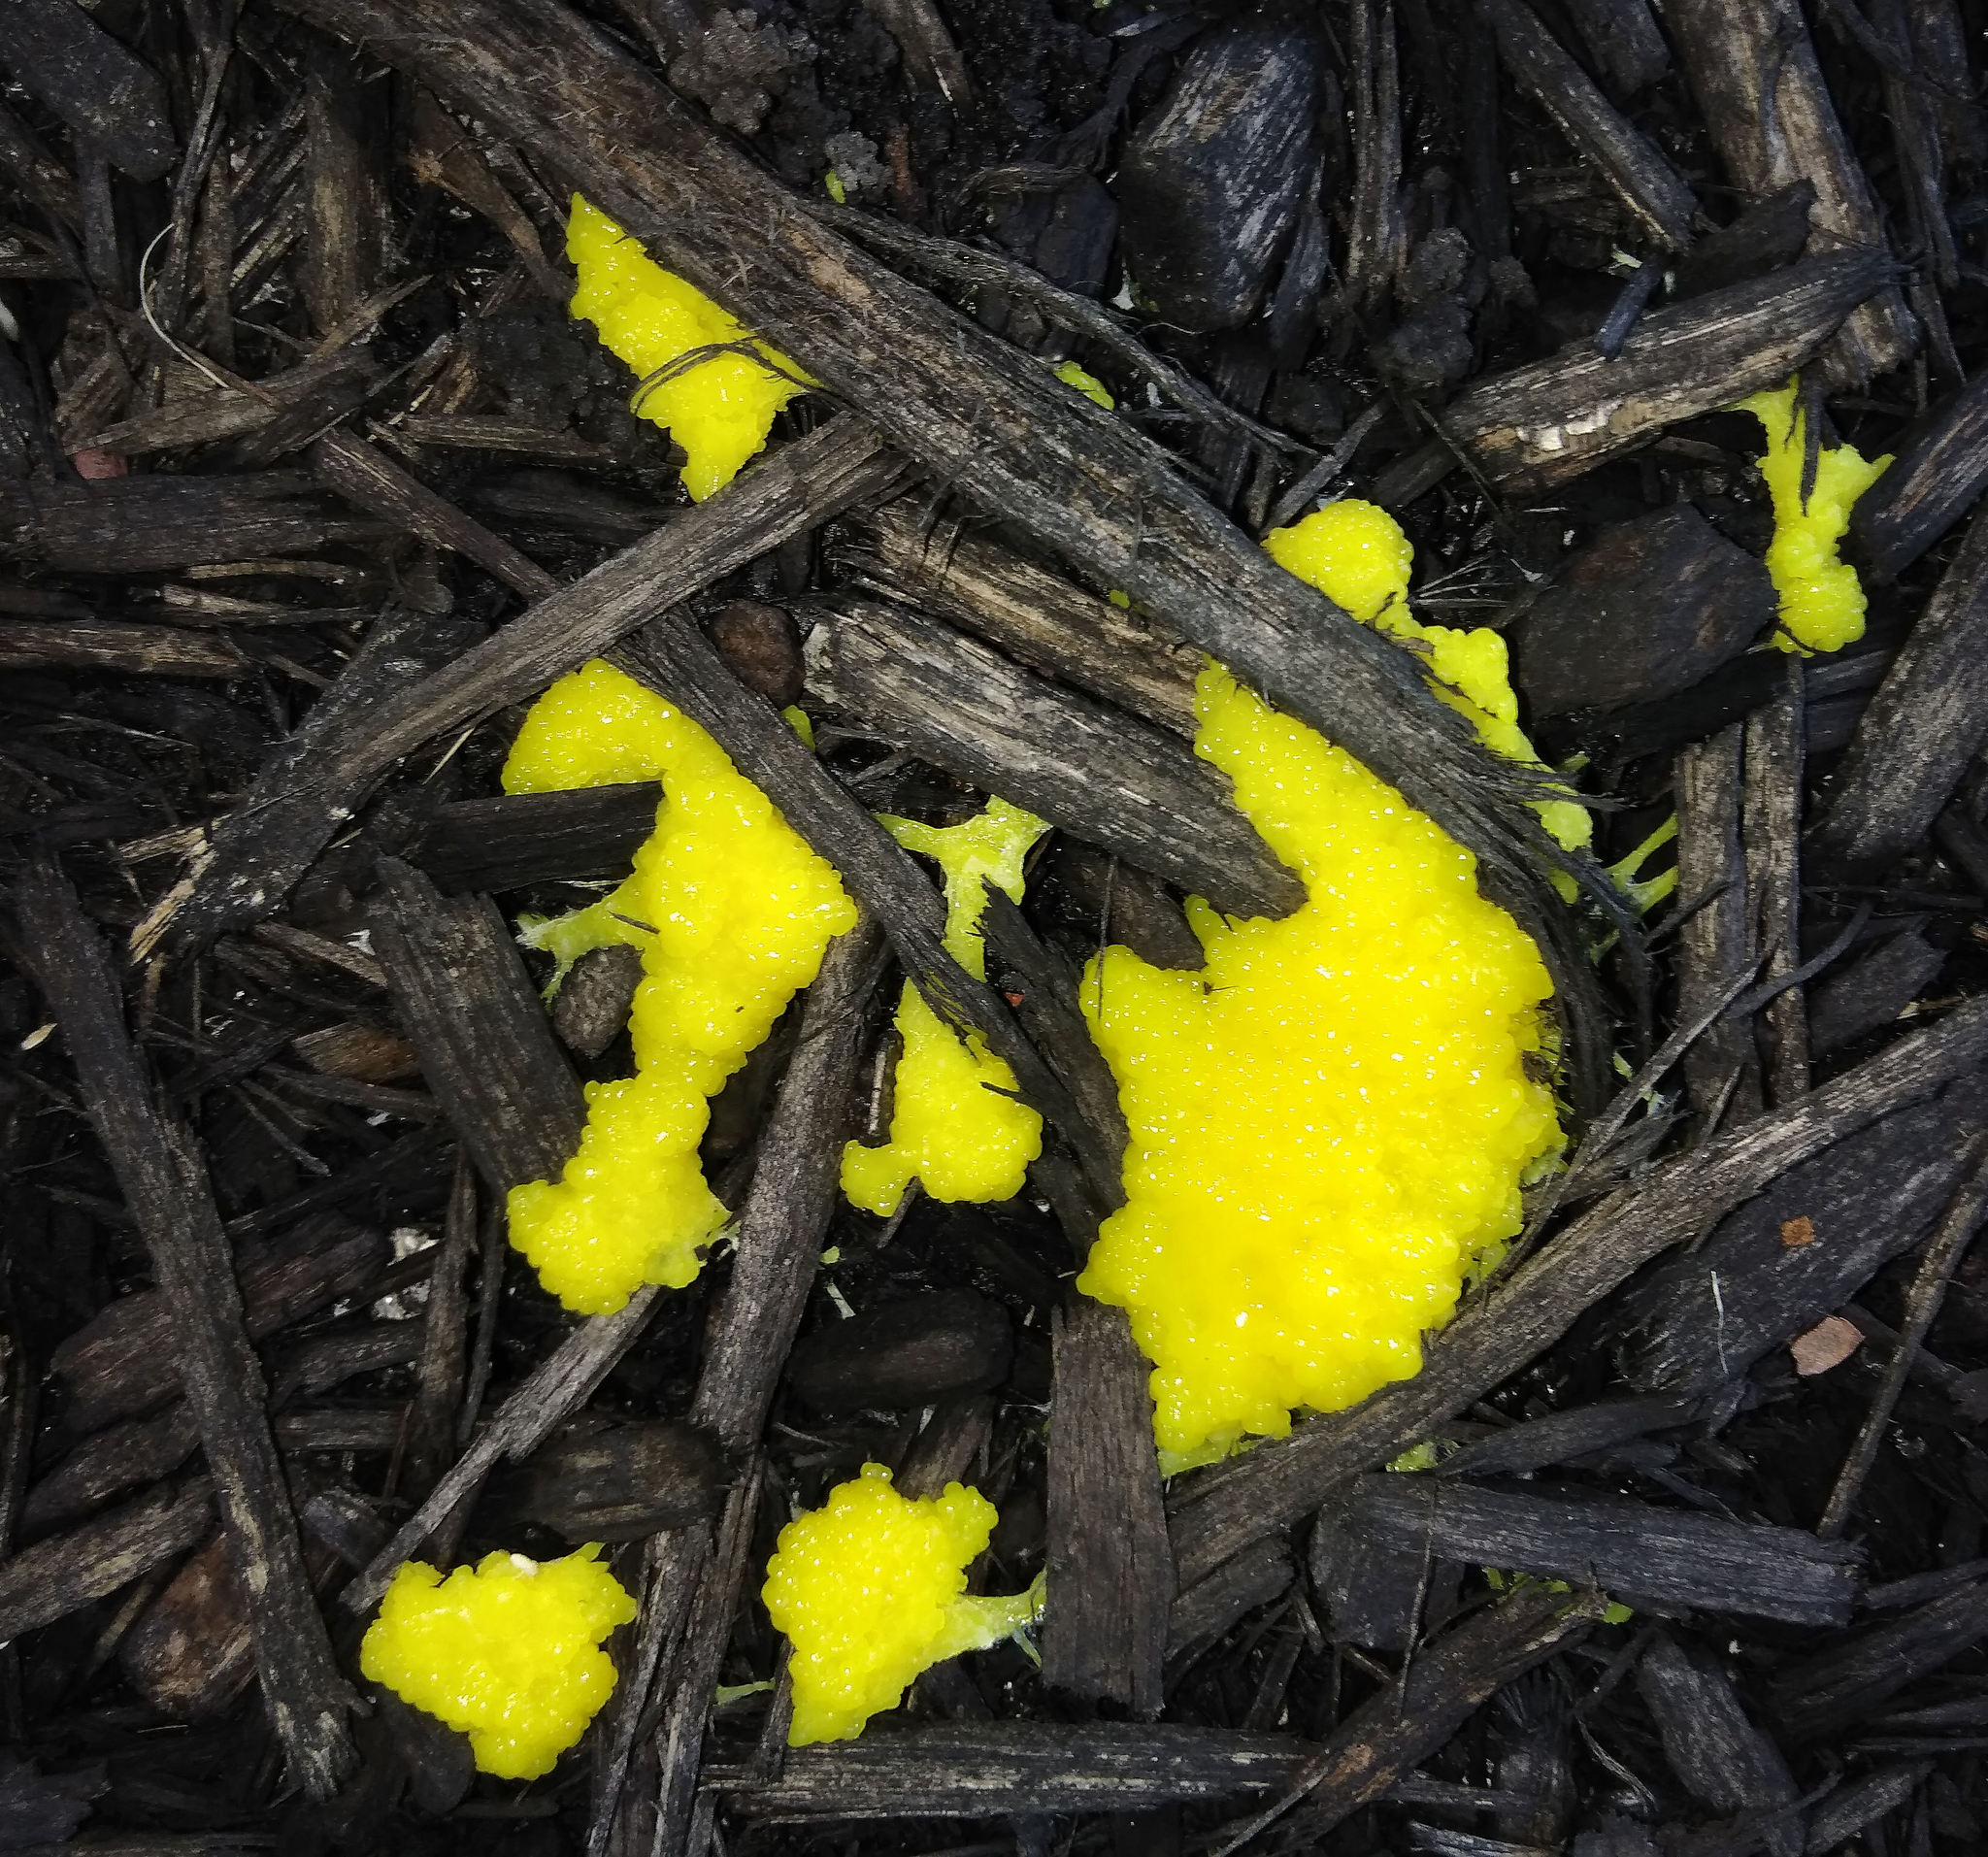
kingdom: Protozoa
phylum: Mycetozoa
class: Myxomycetes
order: Physarales
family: Physaraceae
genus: Fuligo
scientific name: Fuligo septica
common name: Dog vomit slime mold
